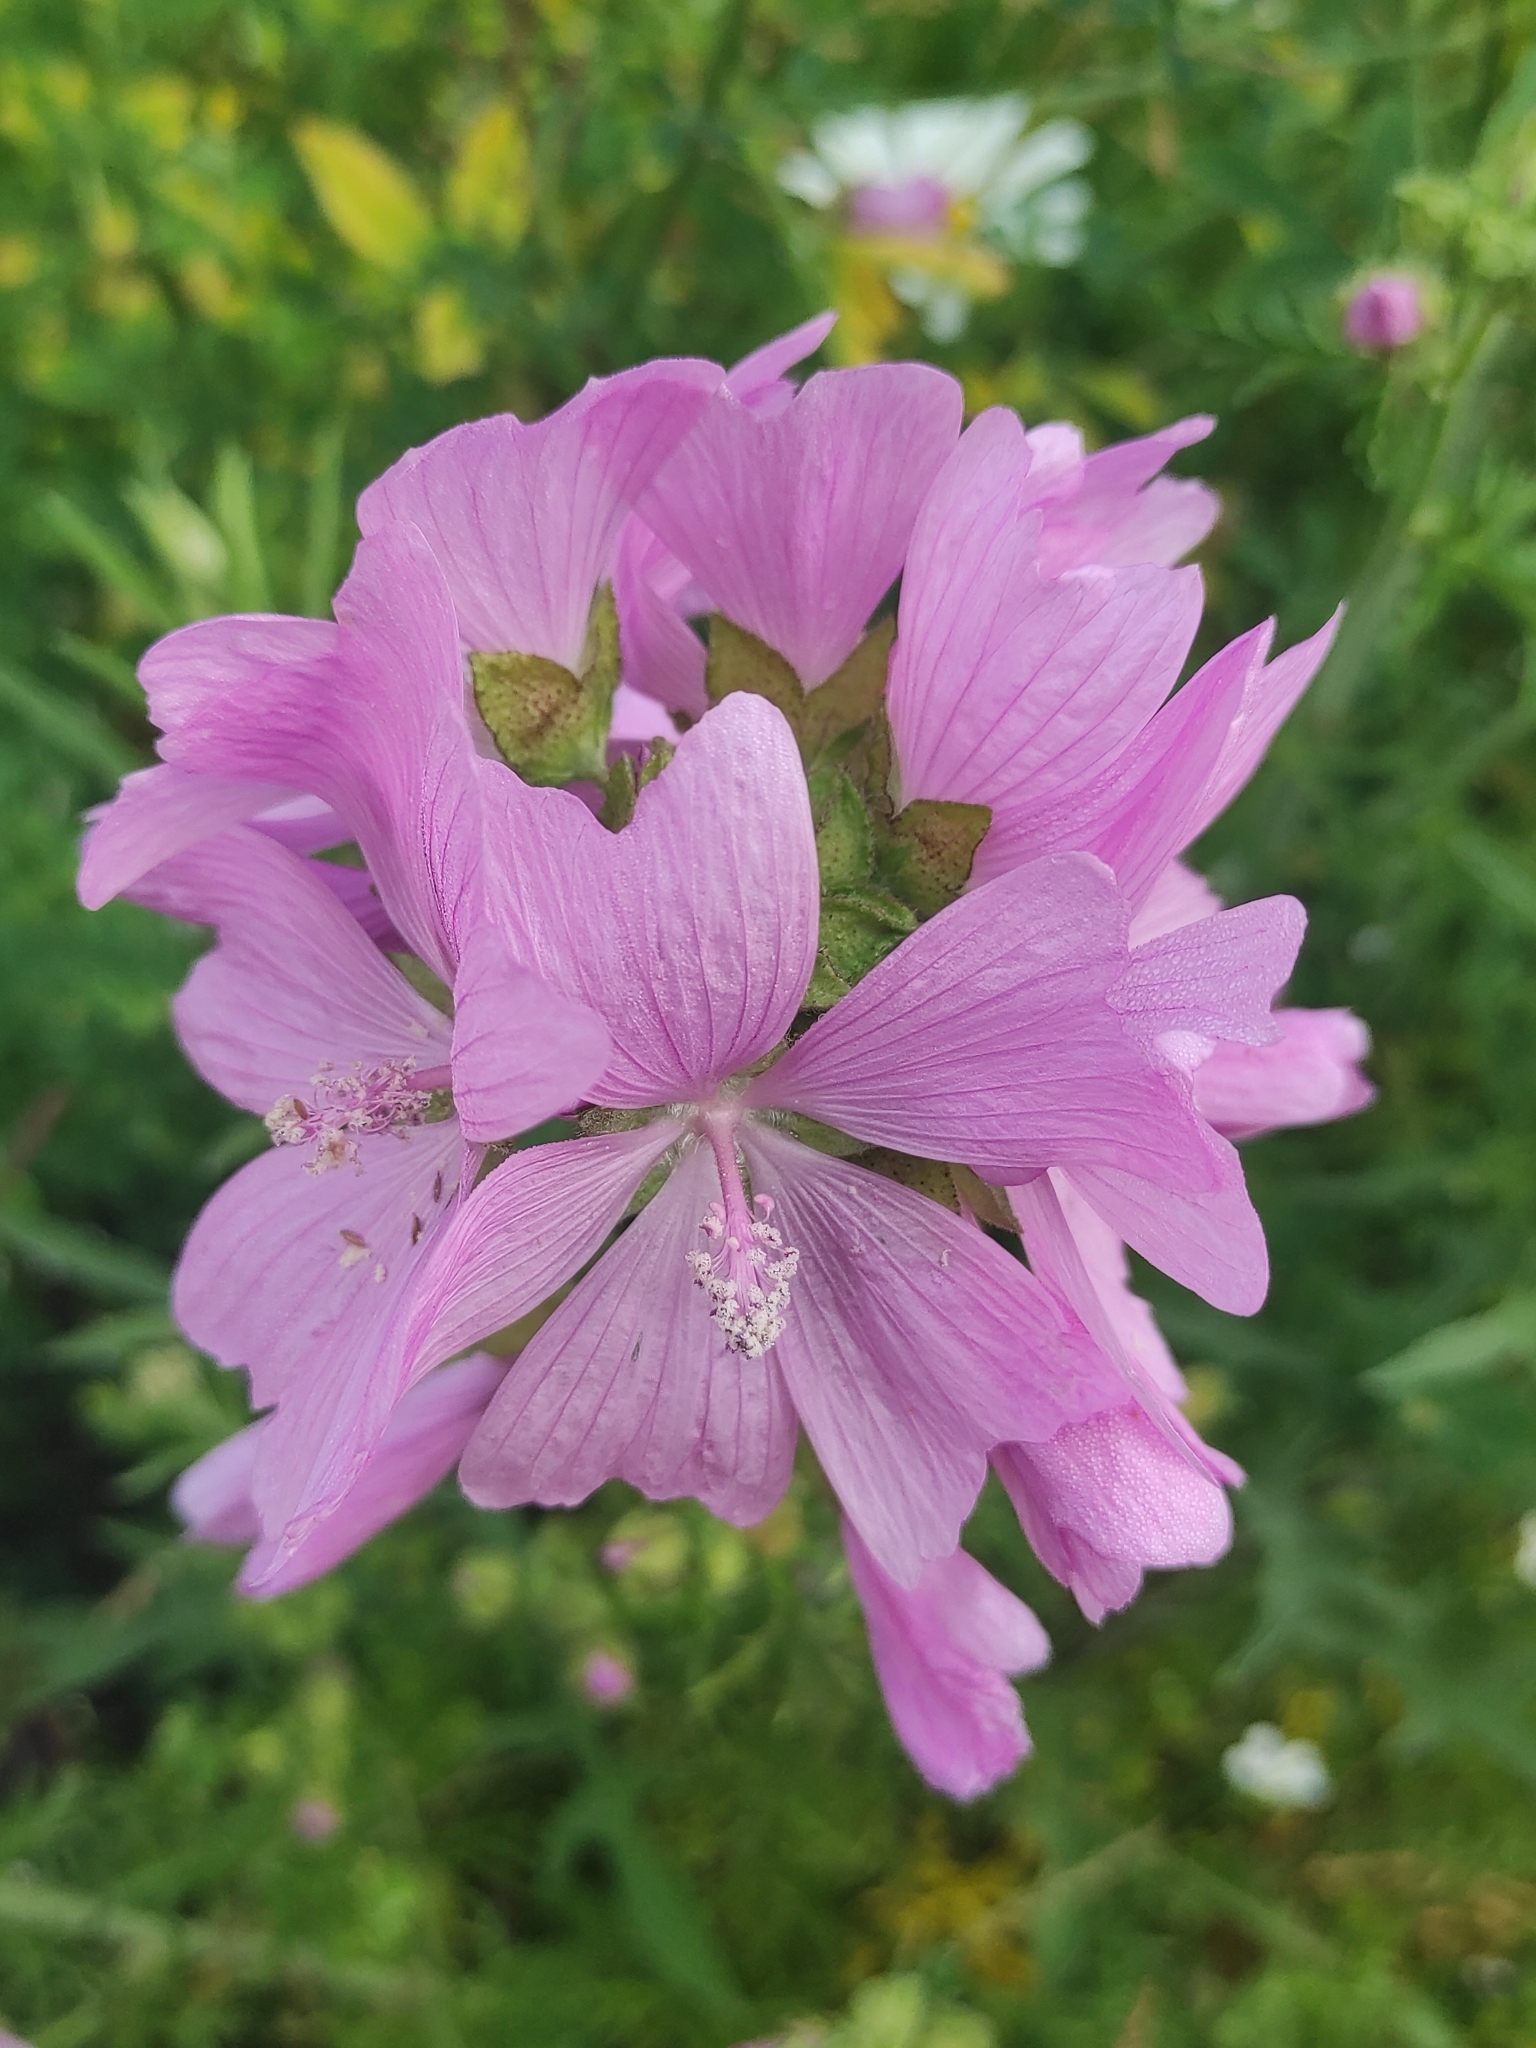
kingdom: Plantae
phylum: Tracheophyta
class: Magnoliopsida
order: Malvales
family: Malvaceae
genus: Malva
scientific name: Malva moschata
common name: Musk mallow
